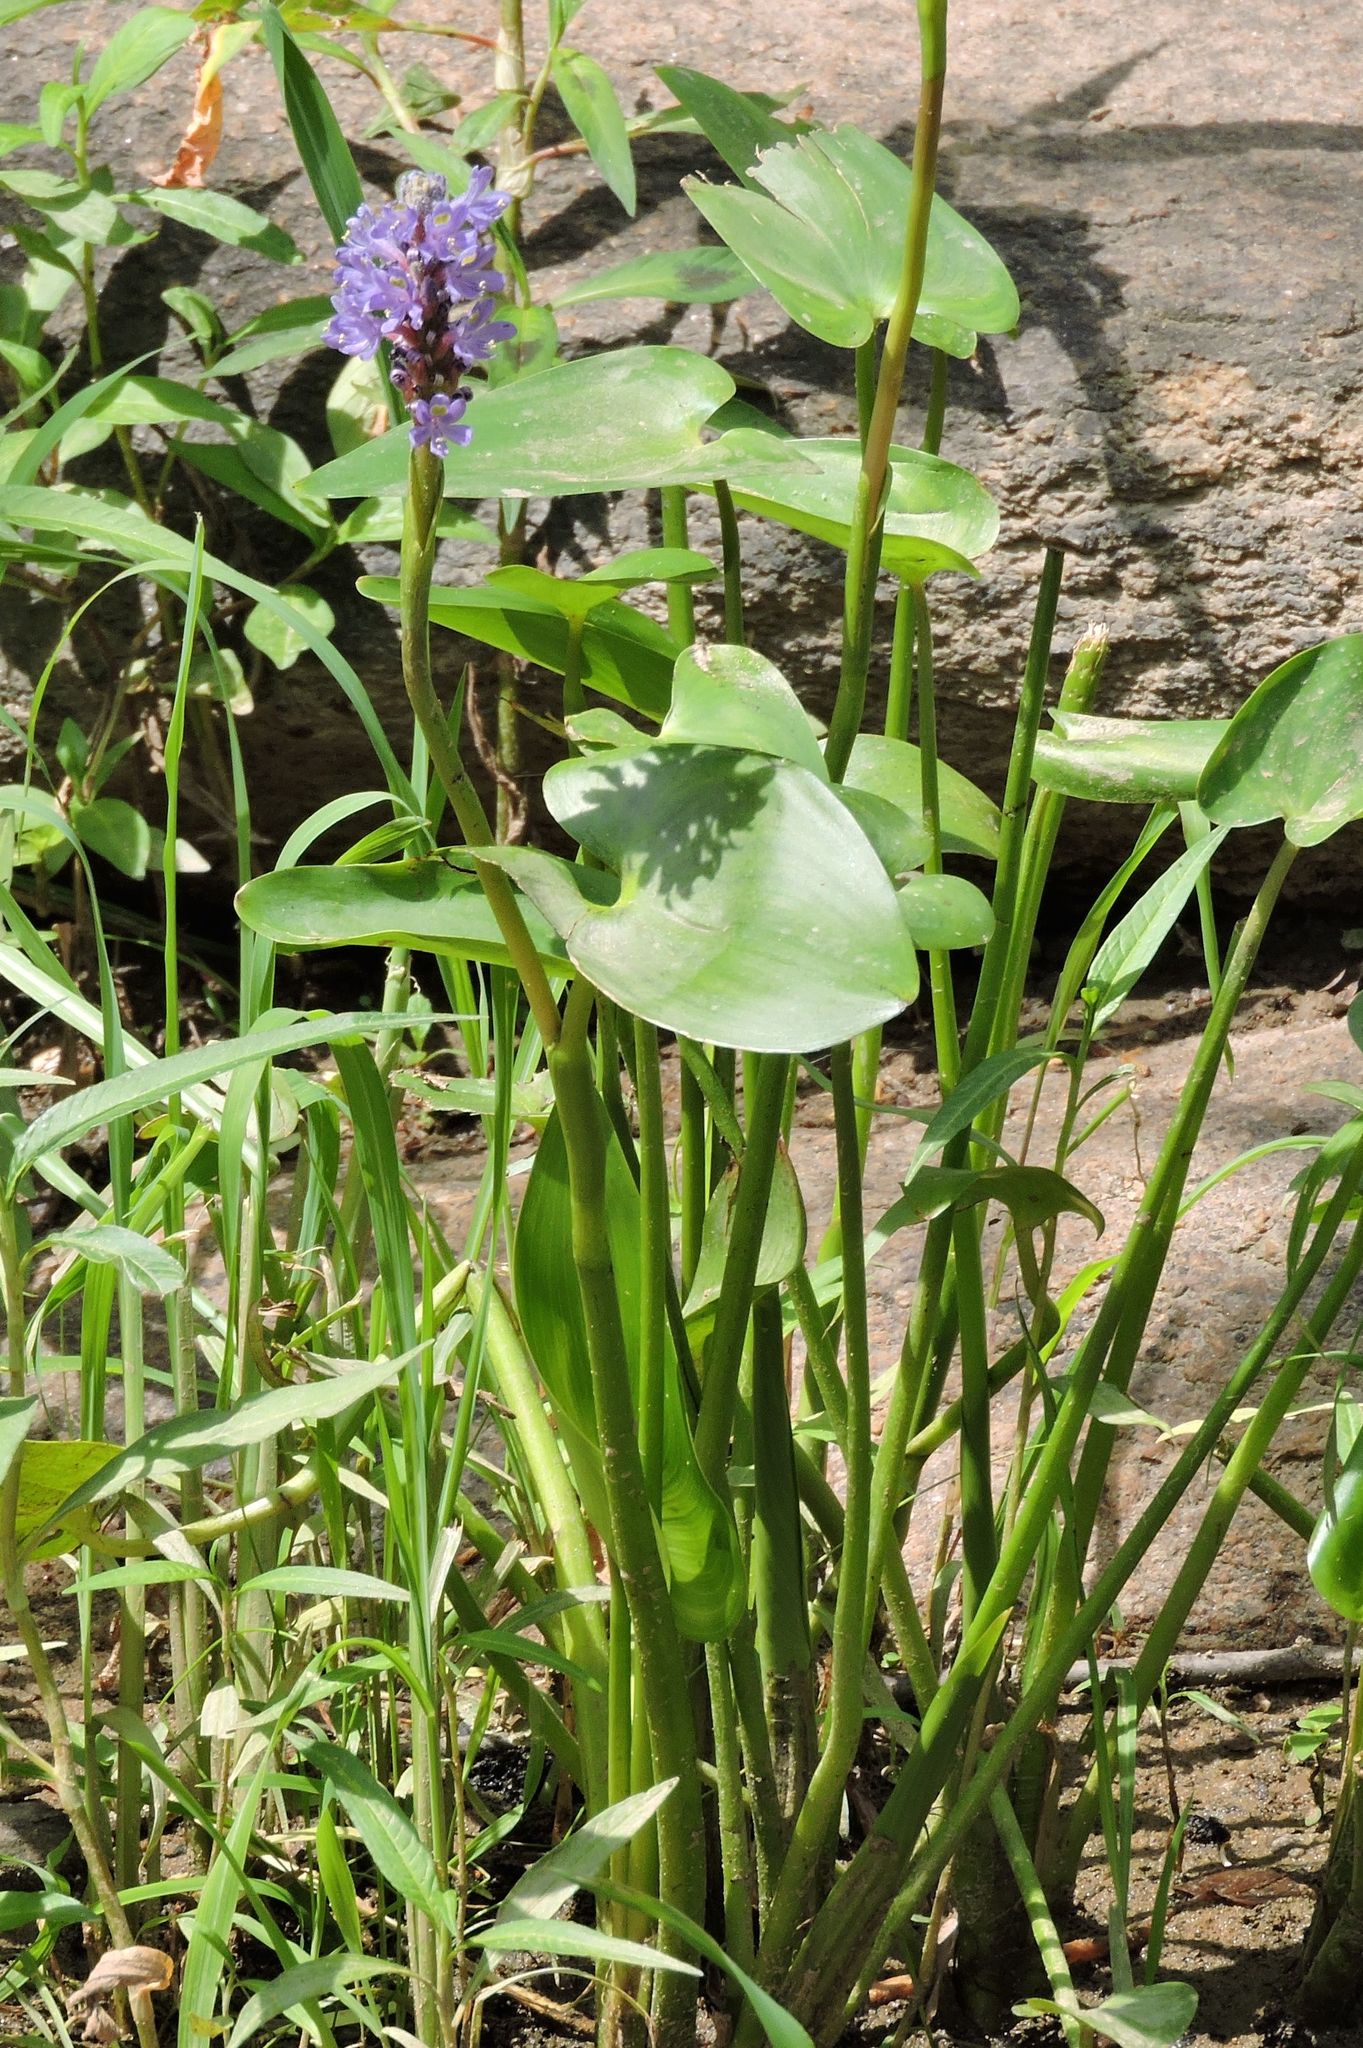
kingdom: Plantae
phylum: Tracheophyta
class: Liliopsida
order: Commelinales
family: Pontederiaceae
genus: Pontederia
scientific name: Pontederia cordata
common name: Pickerelweed
